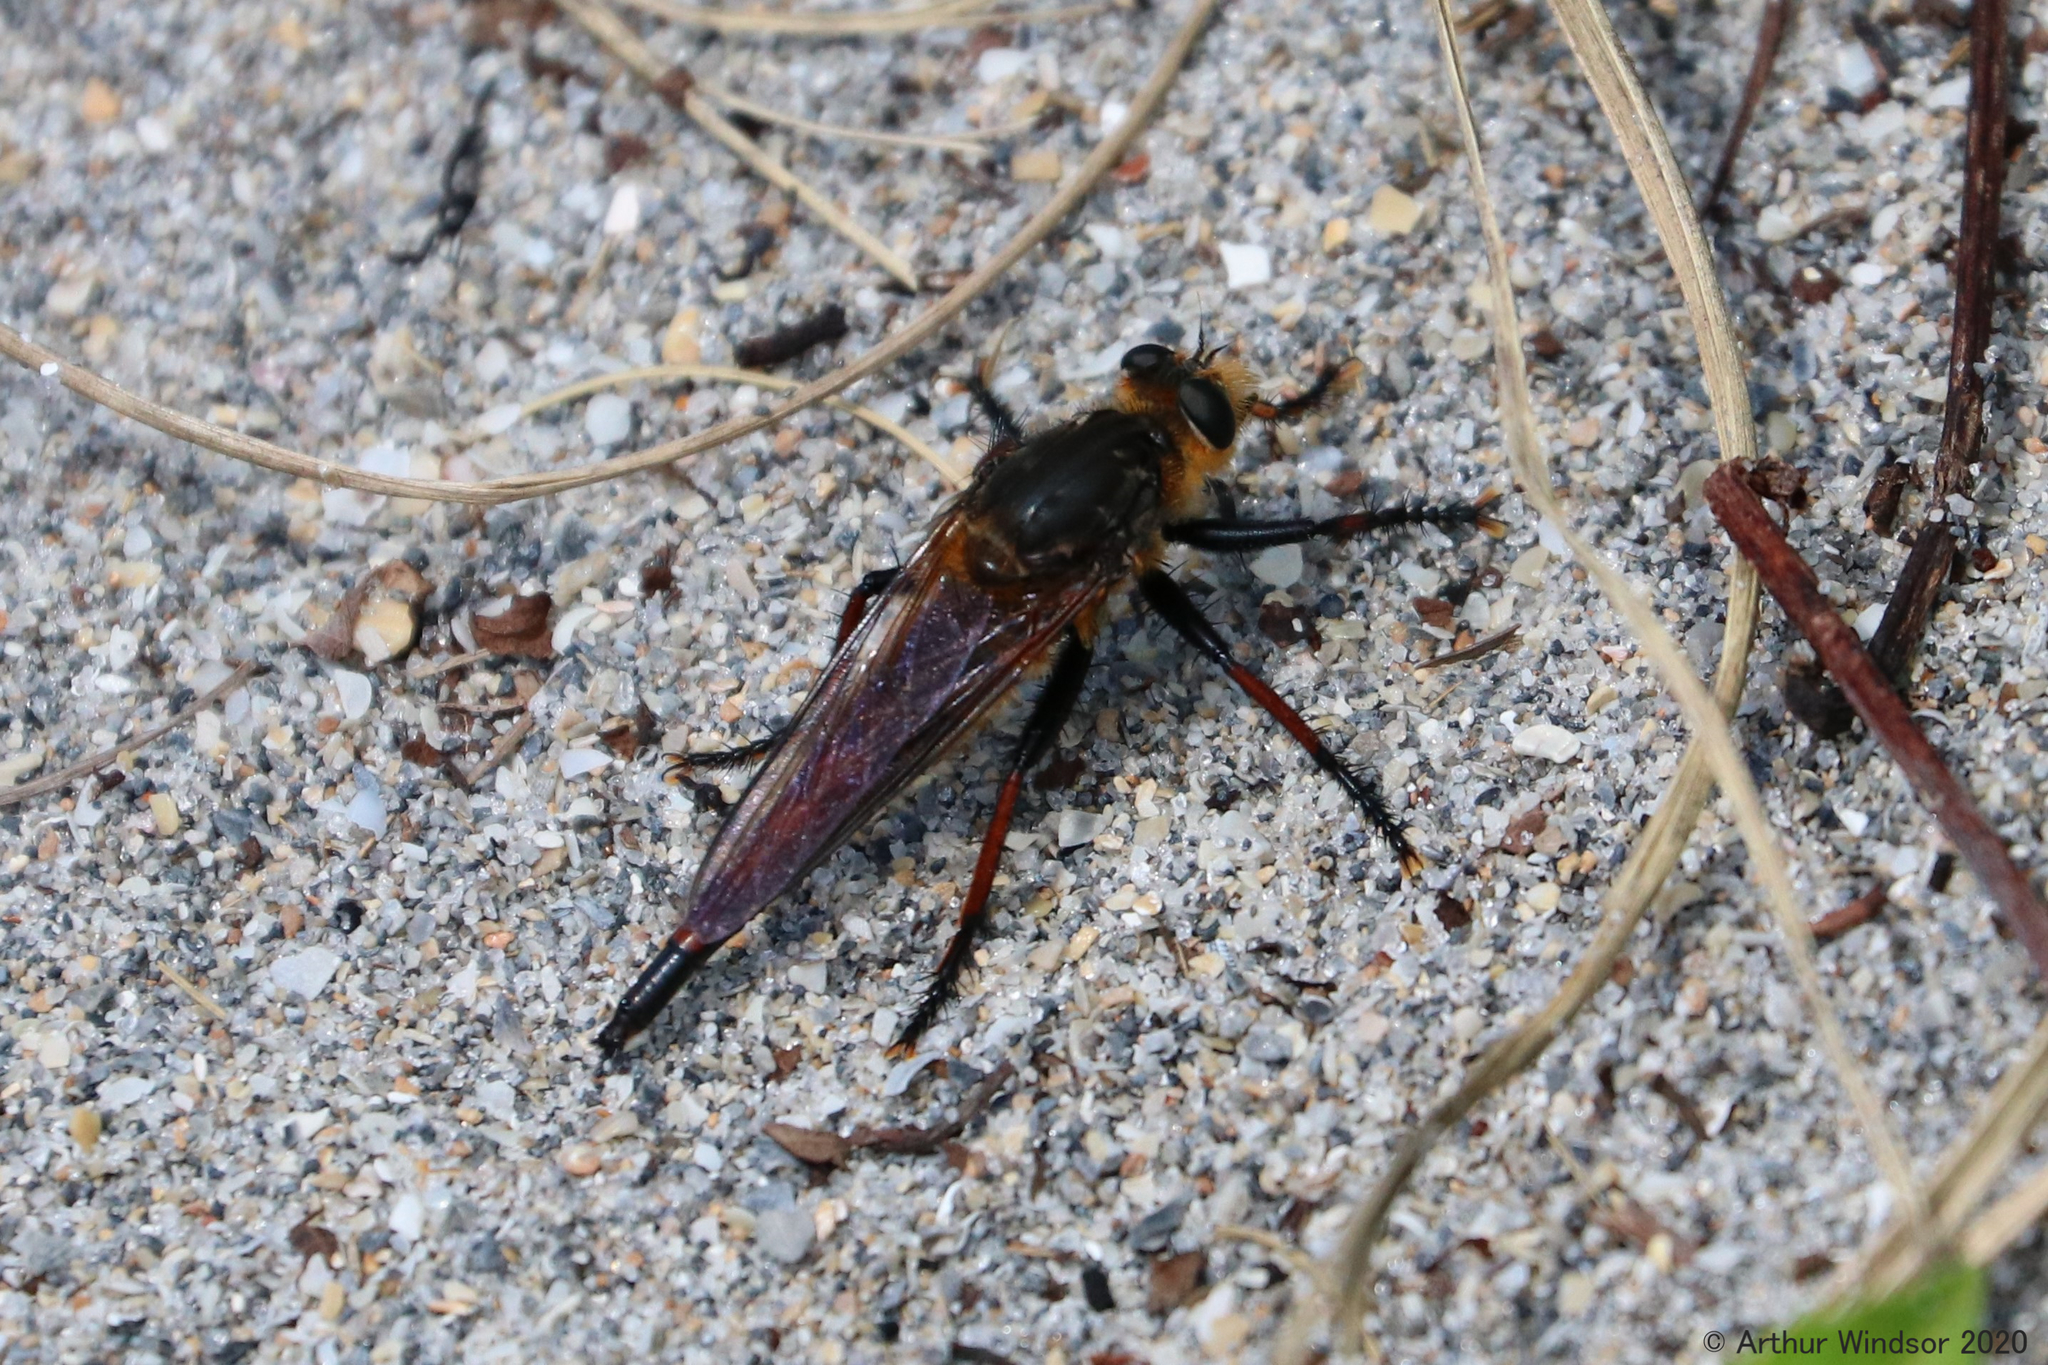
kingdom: Animalia
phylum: Arthropoda
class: Insecta
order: Diptera
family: Asilidae
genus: Proctacanthus
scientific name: Proctacanthus fulviventris
